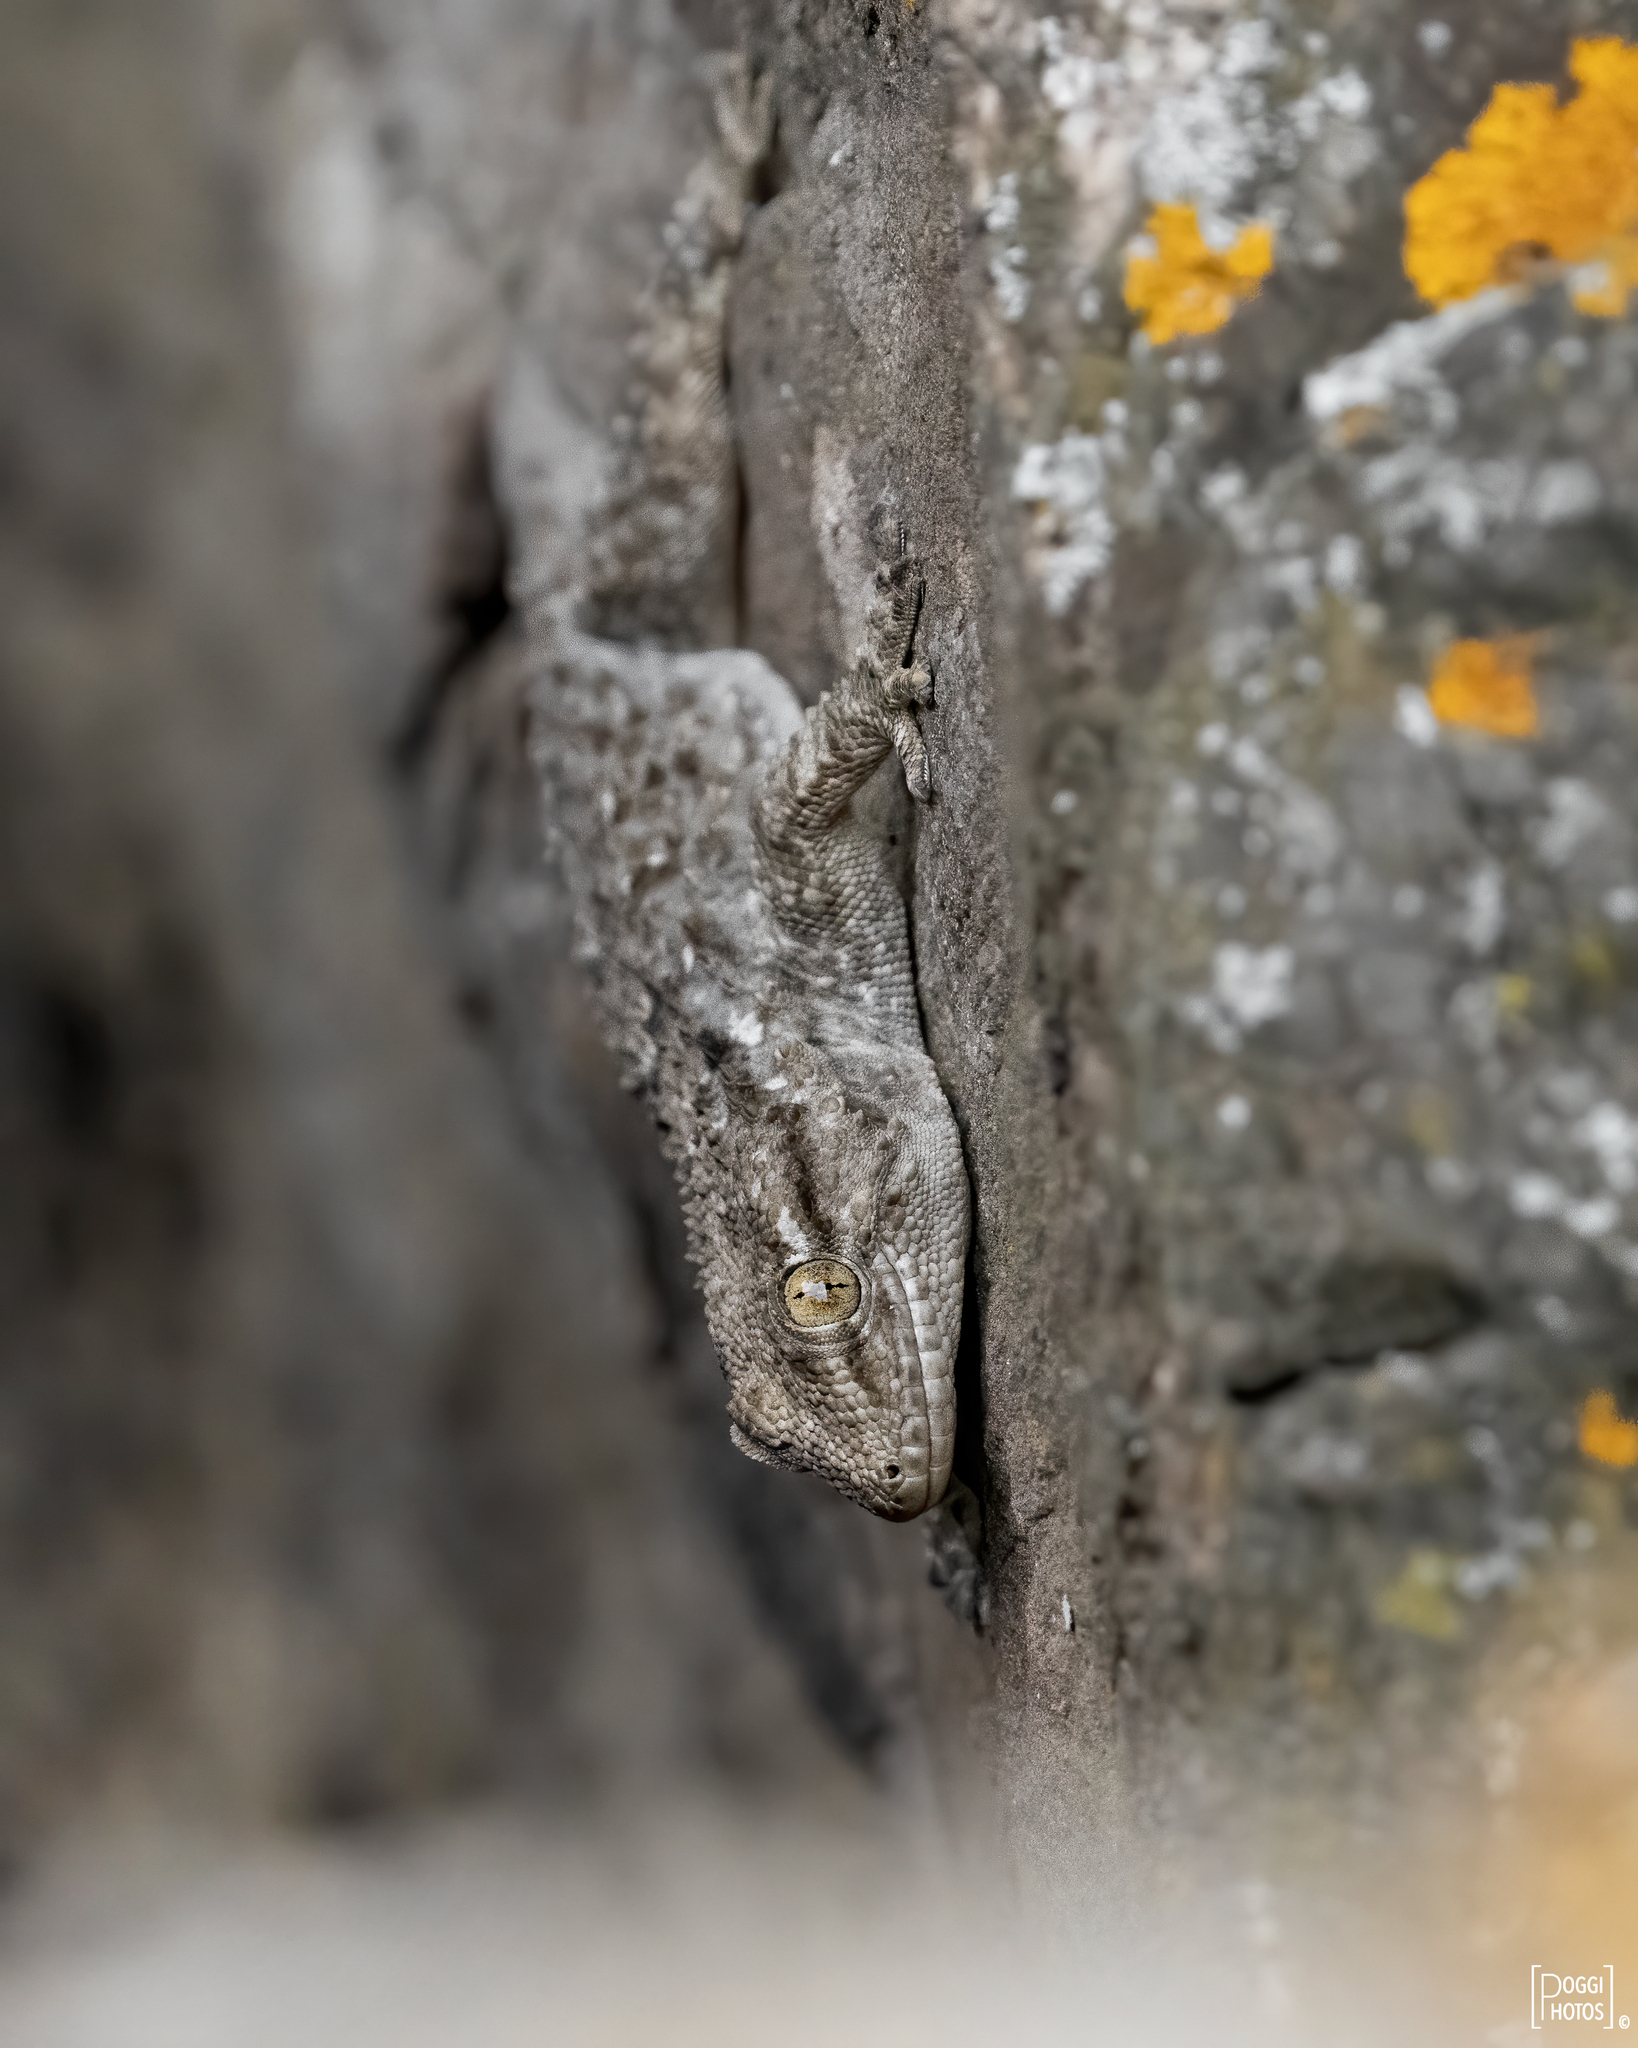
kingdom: Animalia
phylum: Chordata
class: Squamata
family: Phyllodactylidae
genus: Tarentola
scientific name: Tarentola mauritanica
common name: Moorish gecko
